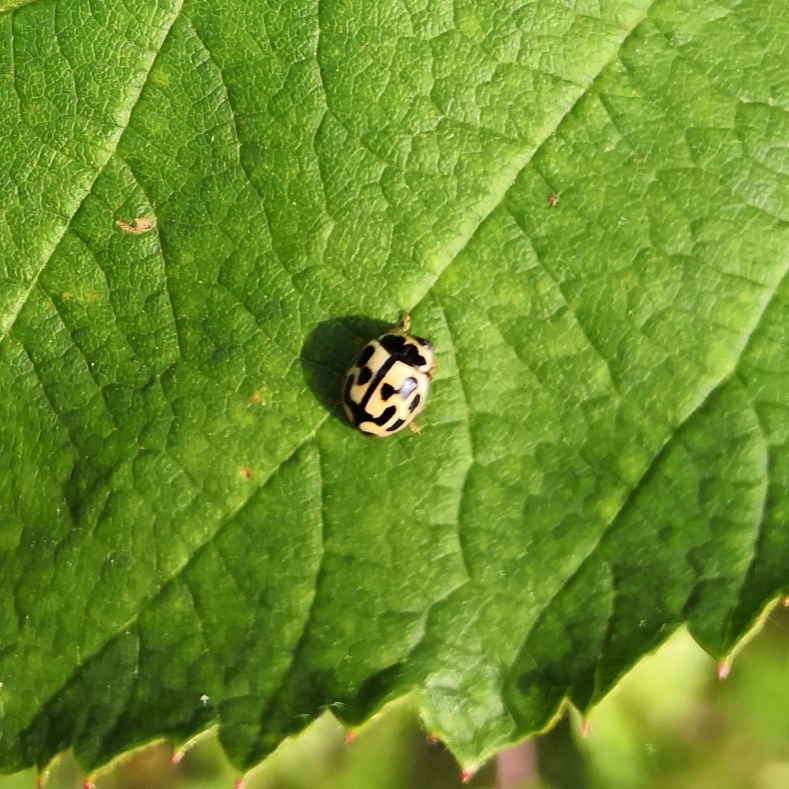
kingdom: Animalia
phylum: Arthropoda
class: Insecta
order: Coleoptera
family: Coccinellidae
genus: Propylaea
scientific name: Propylaea quatuordecimpunctata
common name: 14-spotted ladybird beetle
